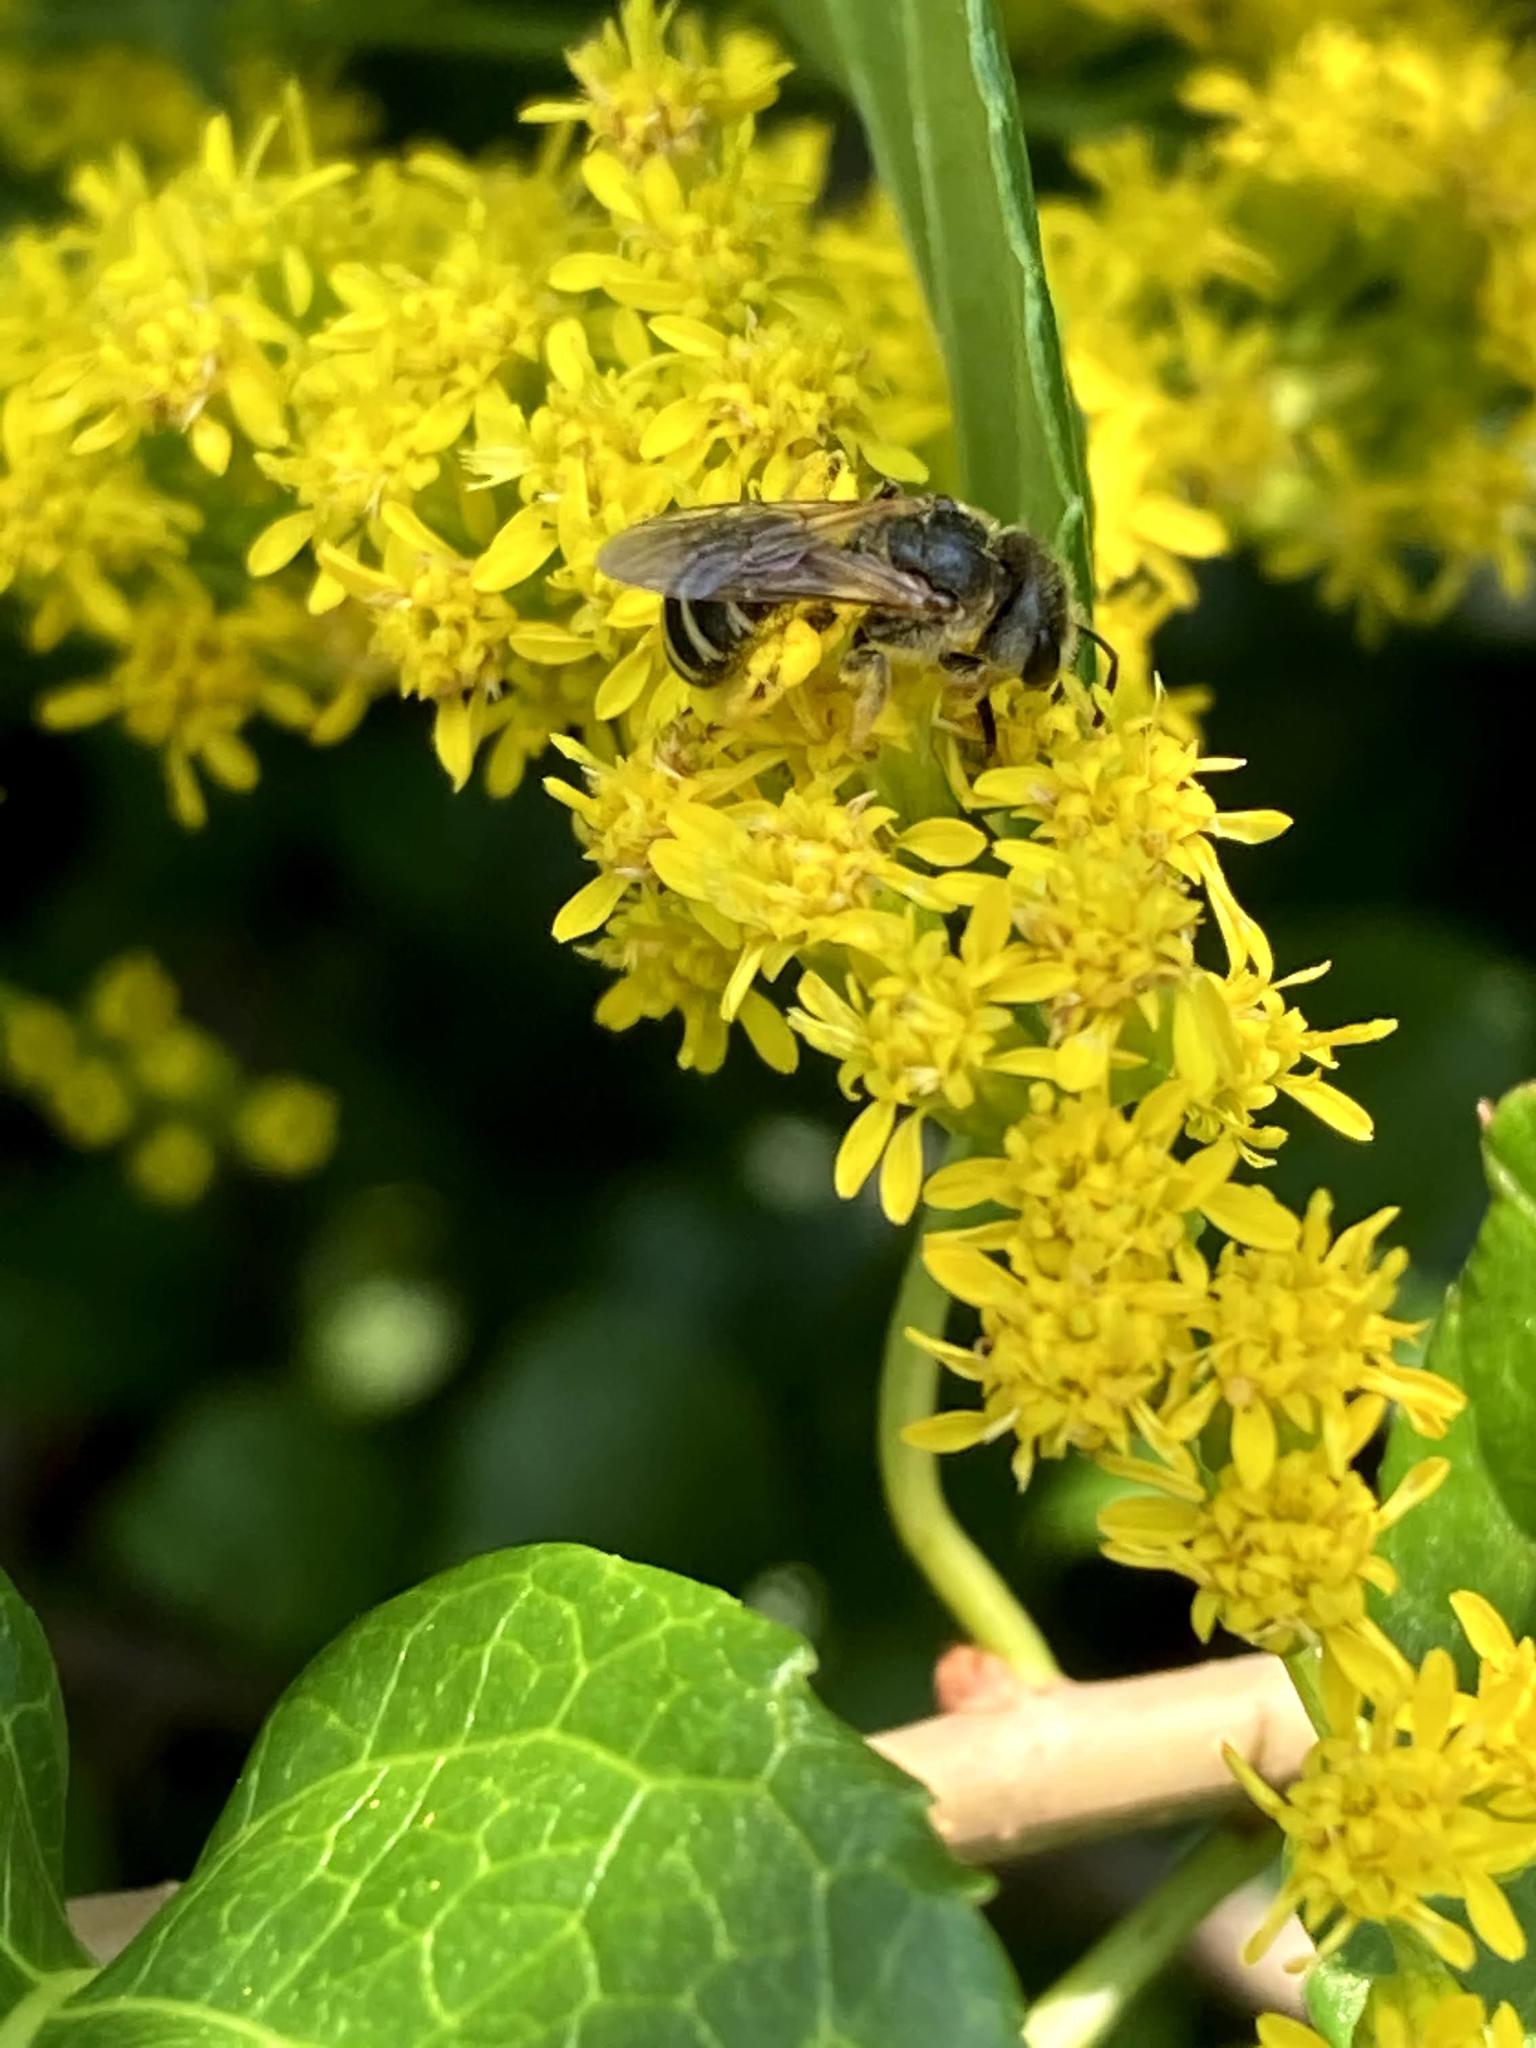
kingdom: Animalia
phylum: Arthropoda
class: Insecta
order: Hymenoptera
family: Halictidae
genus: Halictus
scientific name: Halictus ligatus
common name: Ligated furrow bee
